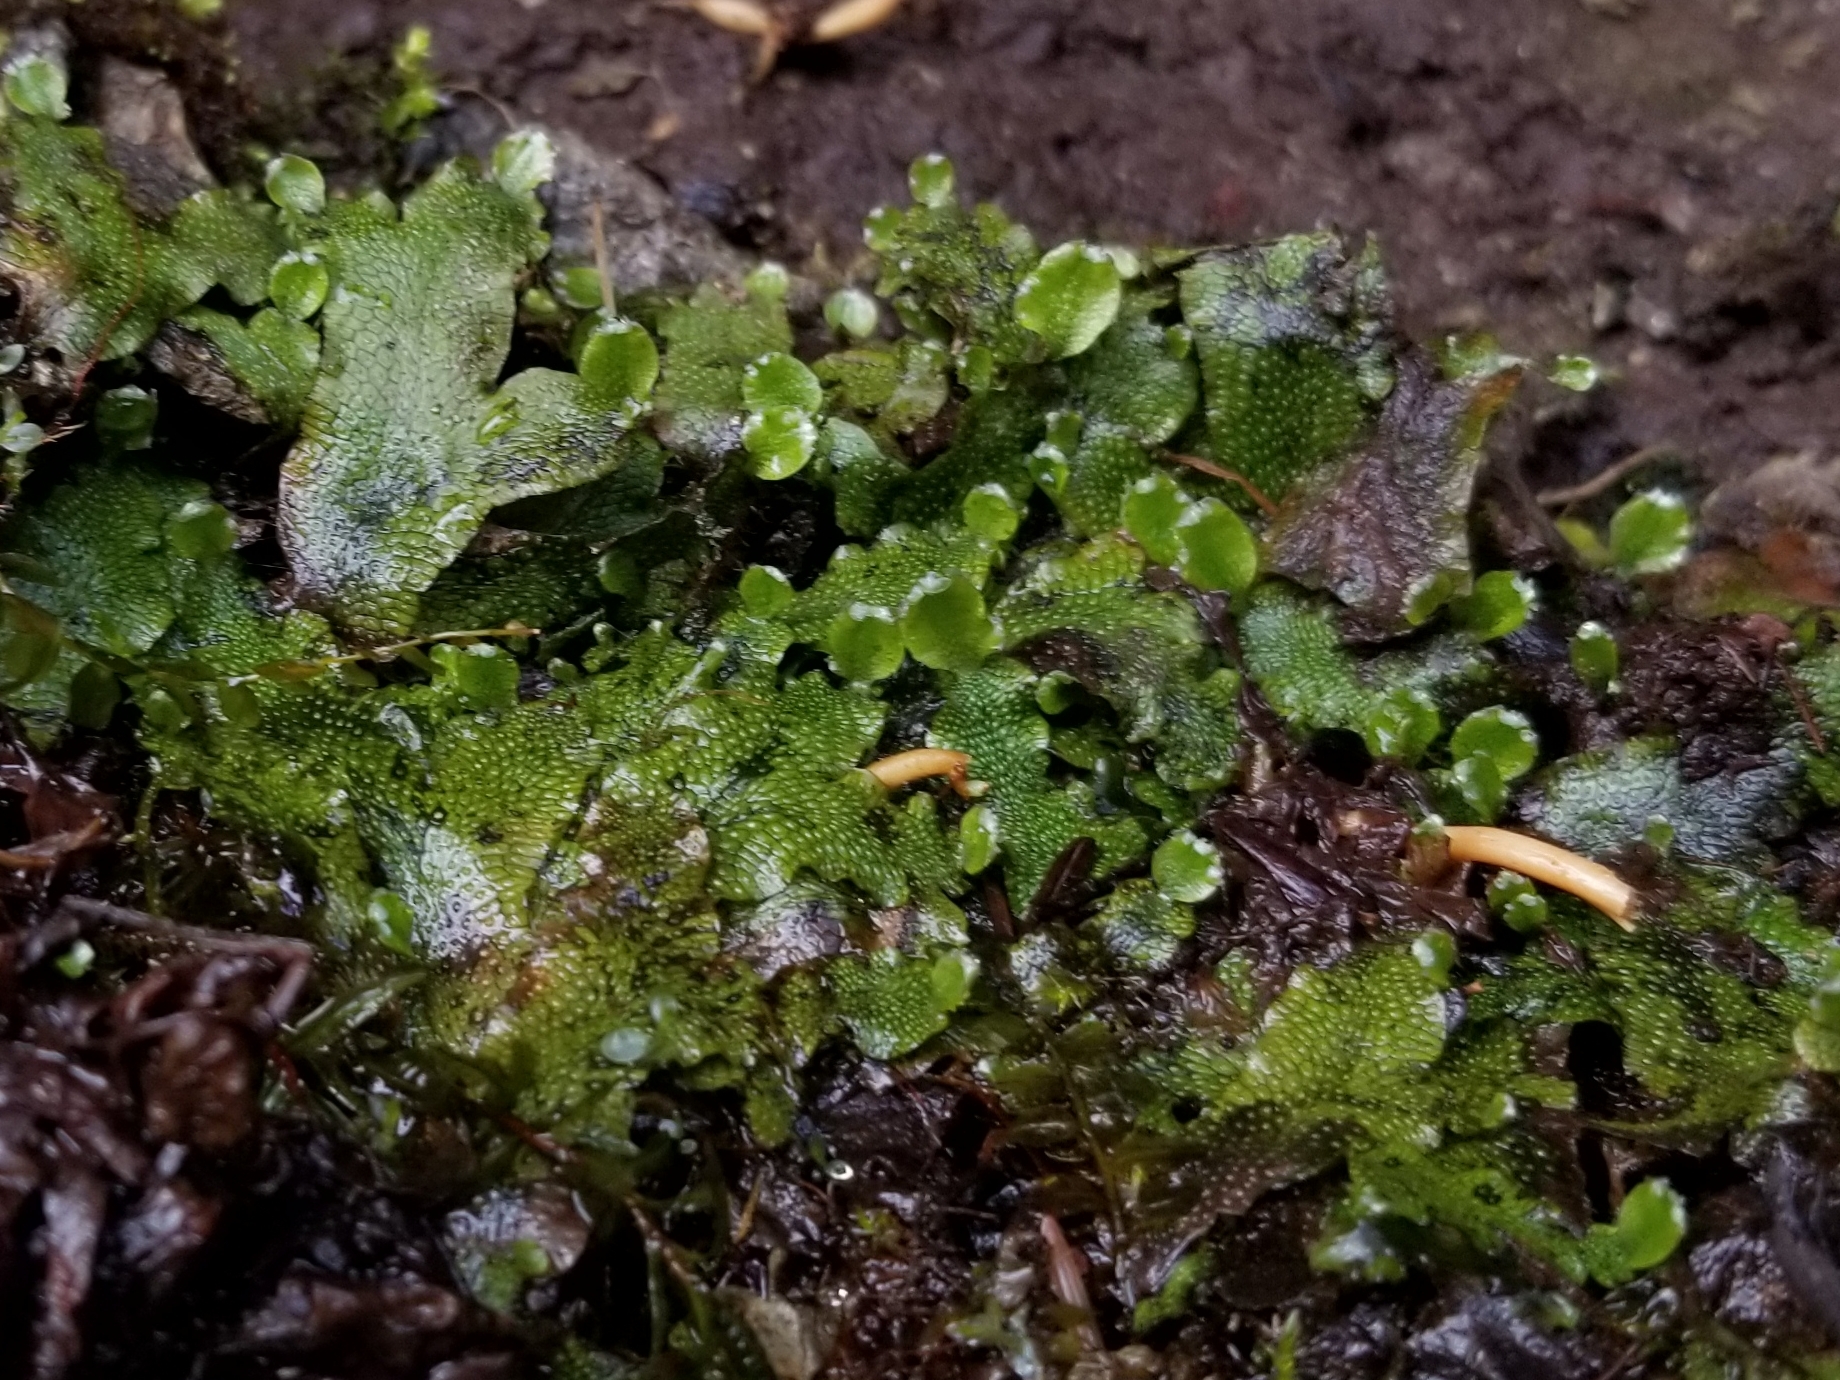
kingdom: Plantae
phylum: Marchantiophyta
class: Marchantiopsida
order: Marchantiales
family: Conocephalaceae
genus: Conocephalum
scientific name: Conocephalum salebrosum
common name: Cat-tongue liverwort
